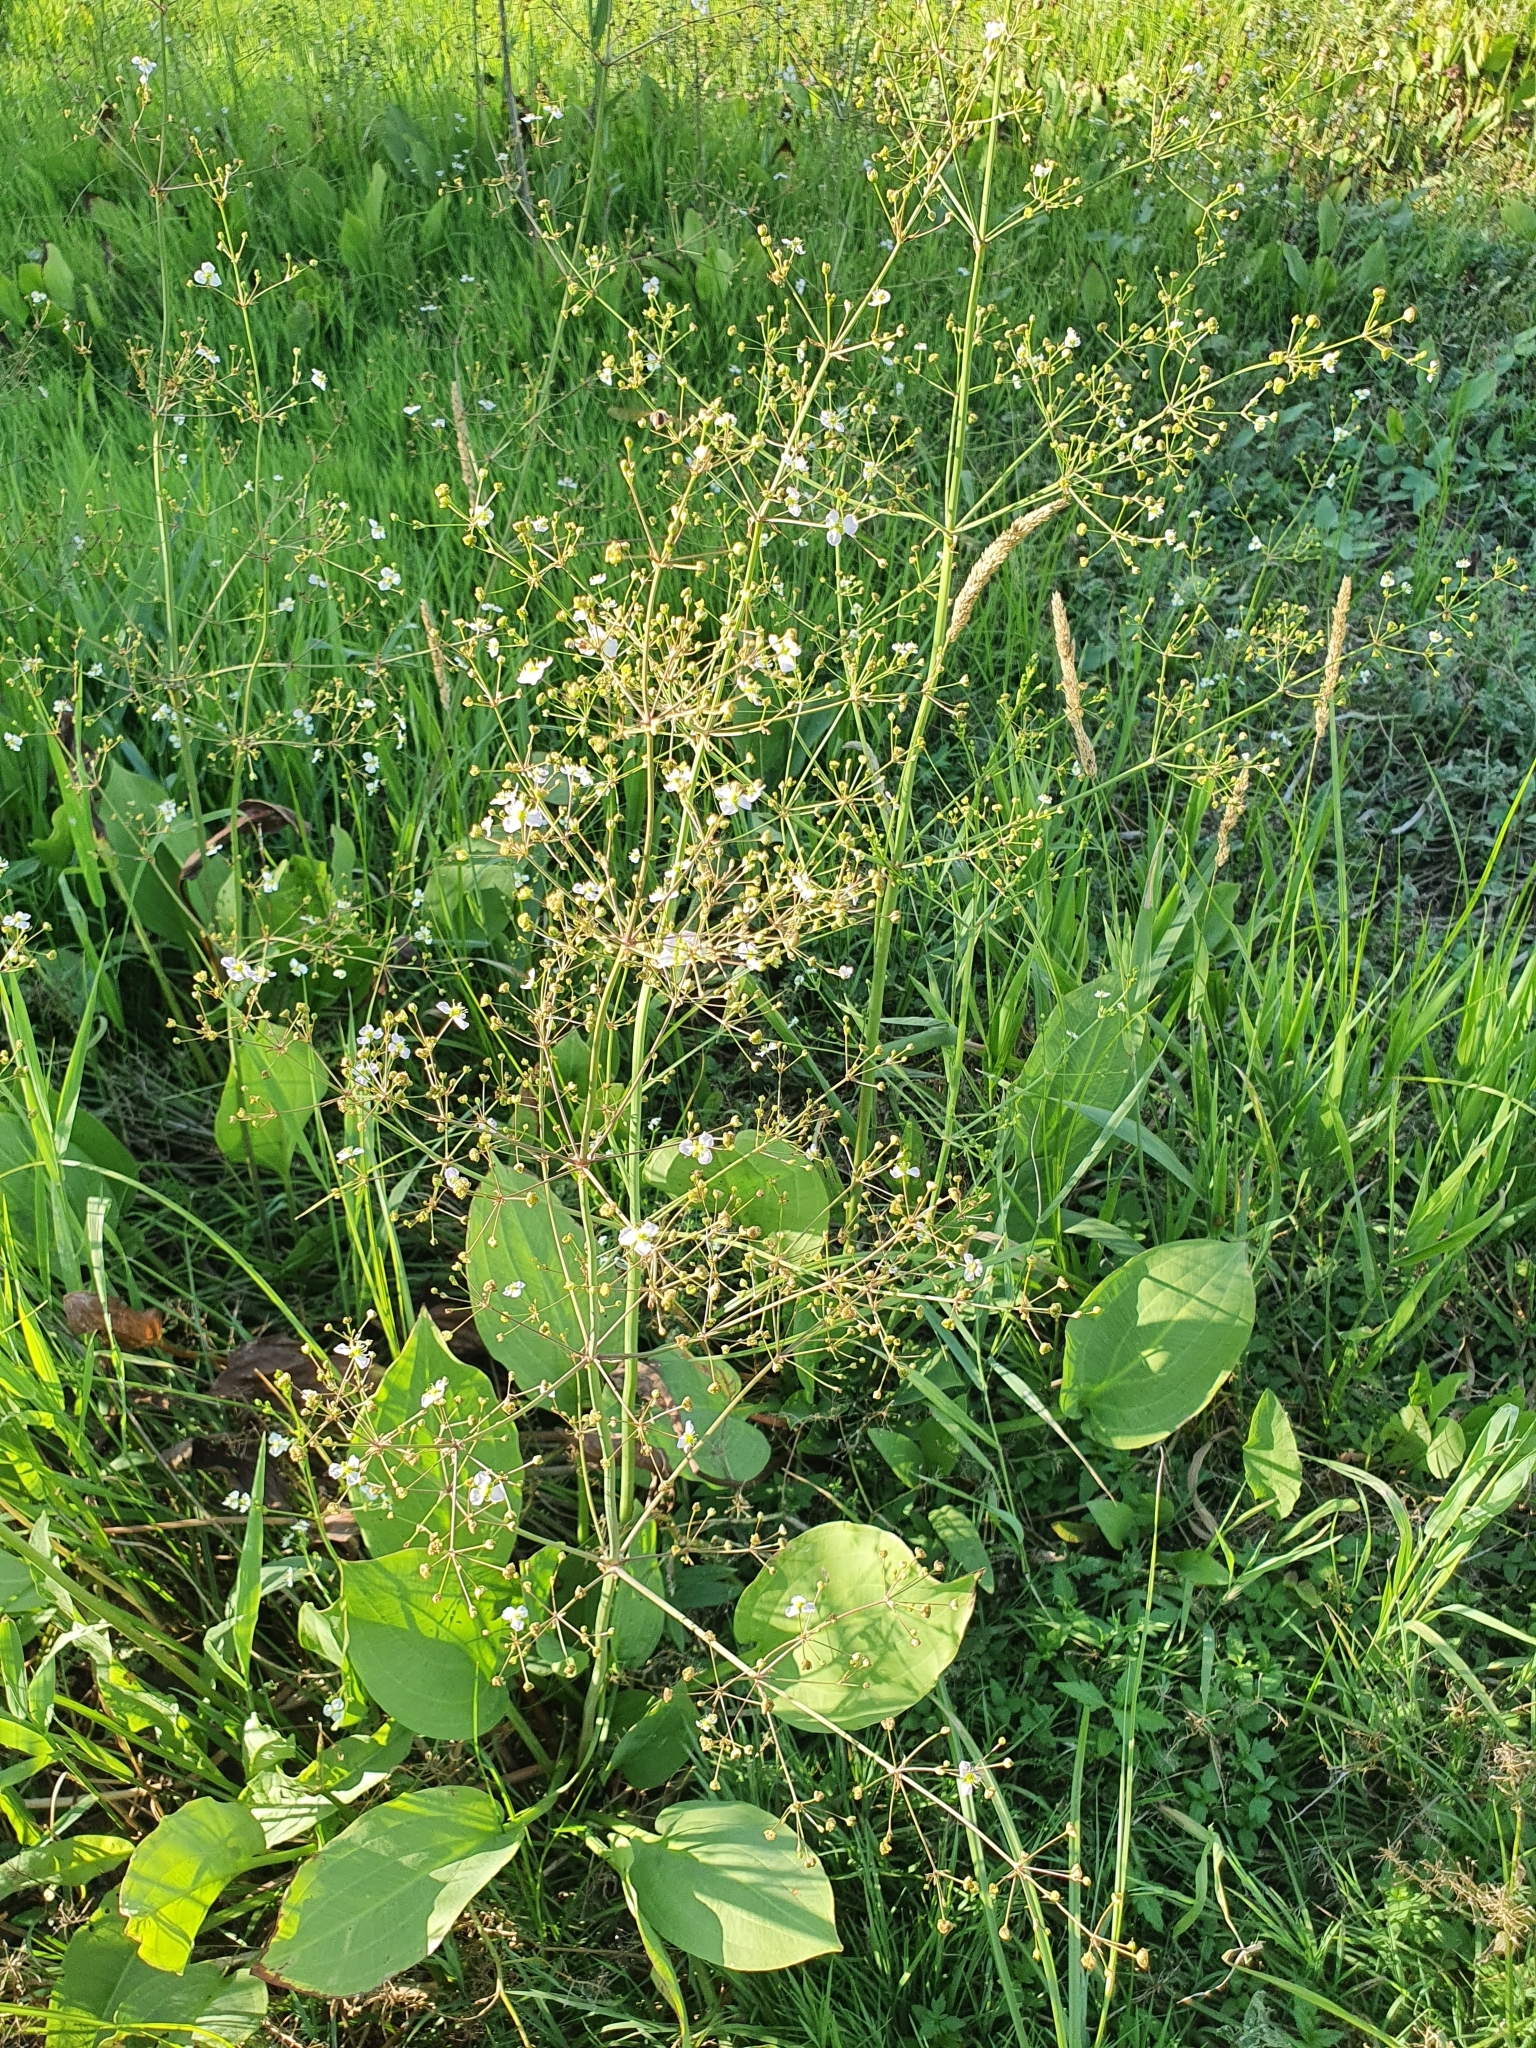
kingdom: Plantae
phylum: Tracheophyta
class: Liliopsida
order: Alismatales
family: Alismataceae
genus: Alisma
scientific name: Alisma plantago-aquatica
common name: Water-plantain
